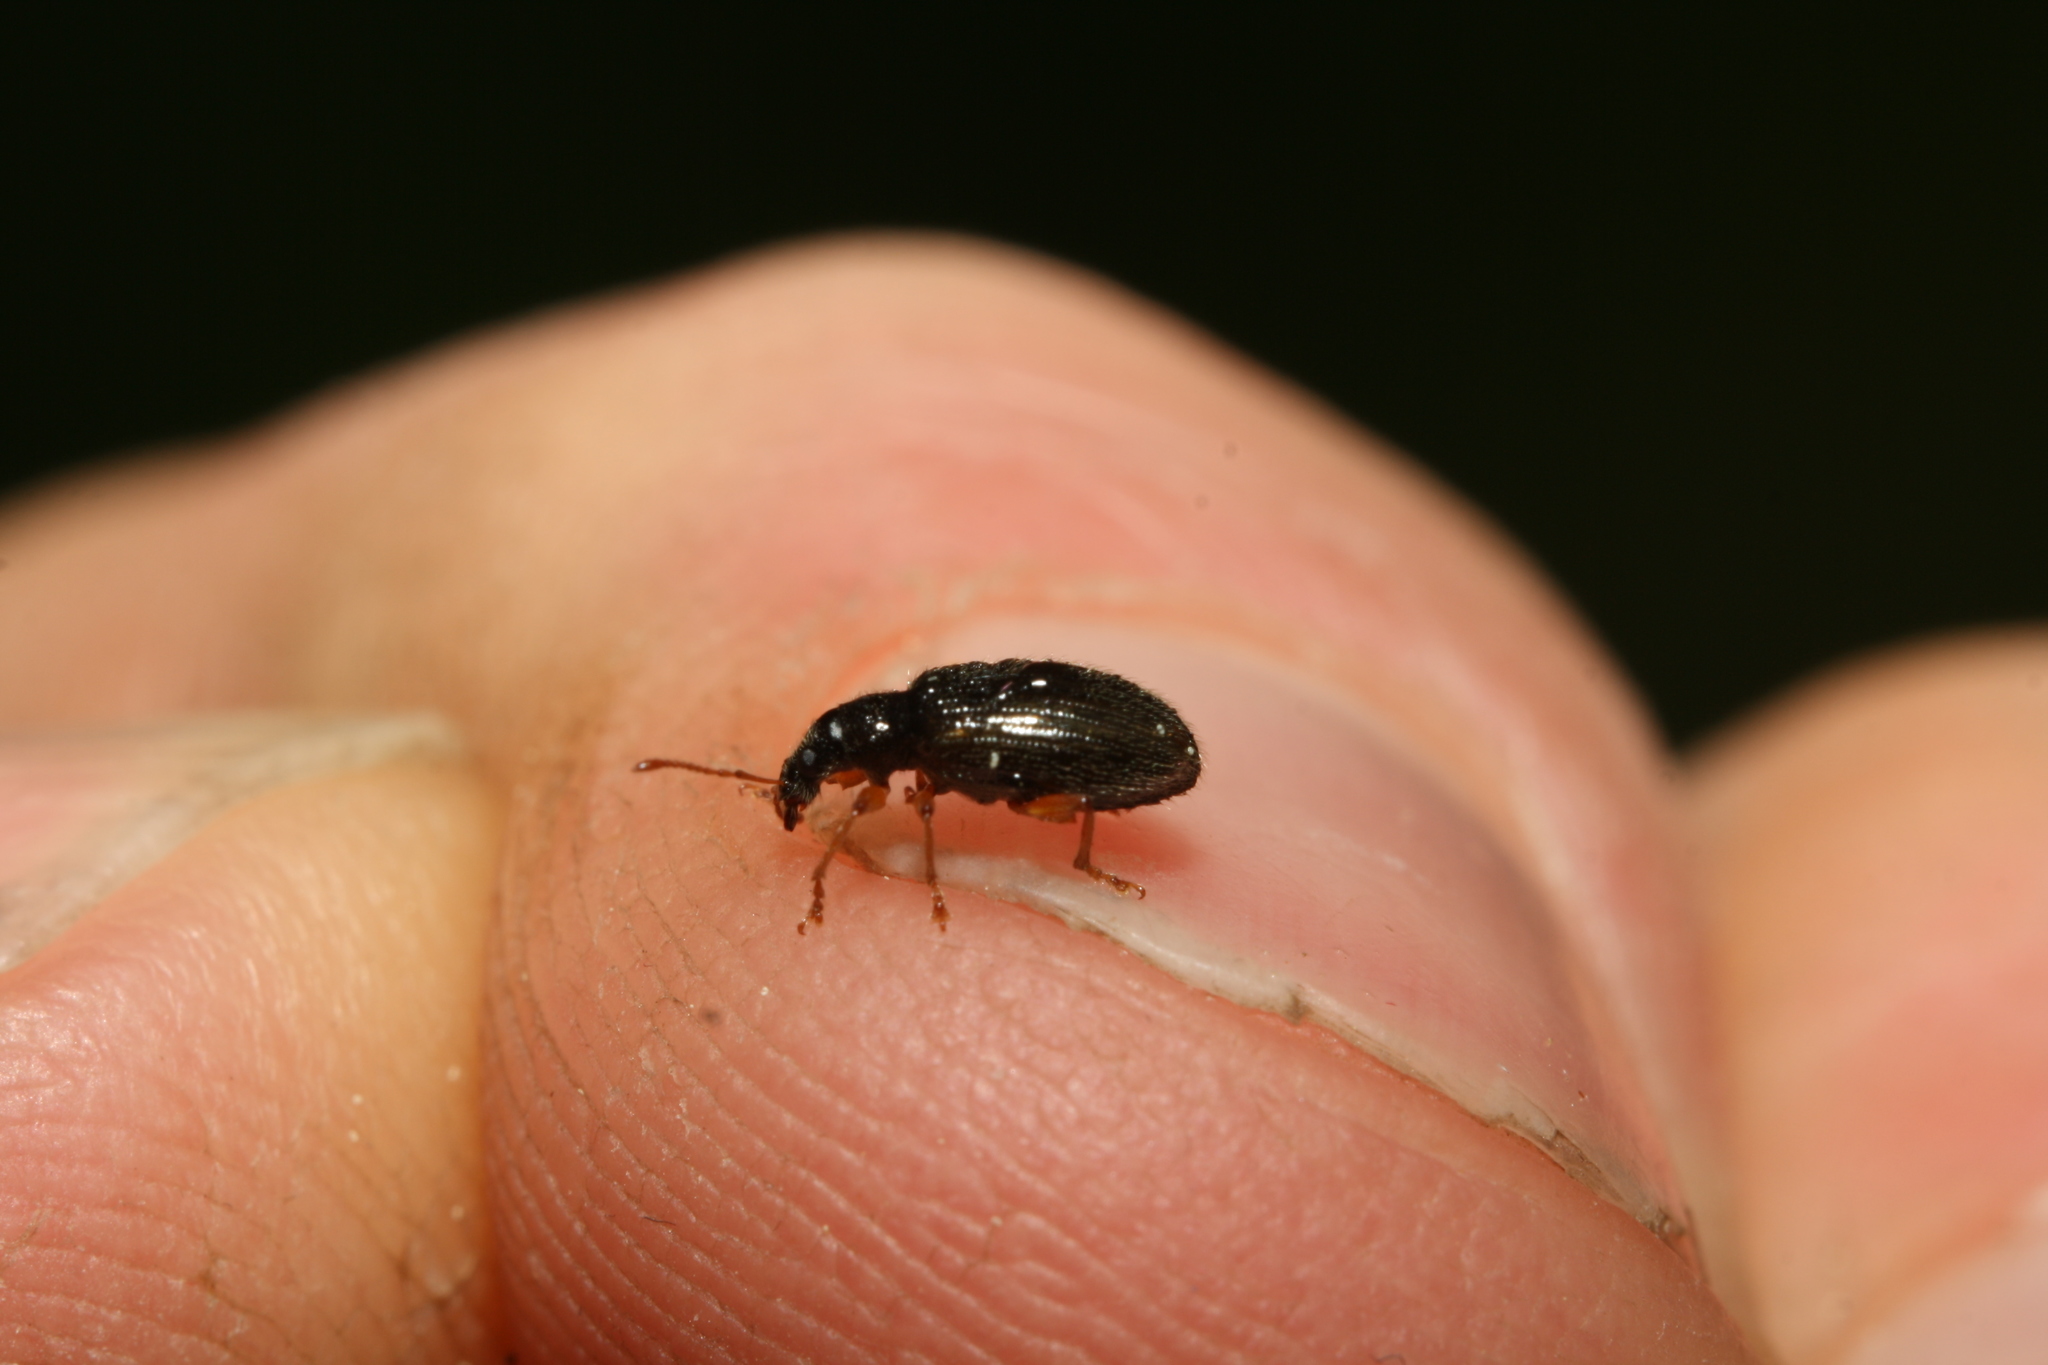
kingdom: Animalia
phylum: Arthropoda
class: Insecta
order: Coleoptera
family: Curculionidae
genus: Phyllobius
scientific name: Phyllobius oblongus
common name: Brown leaf weevil
